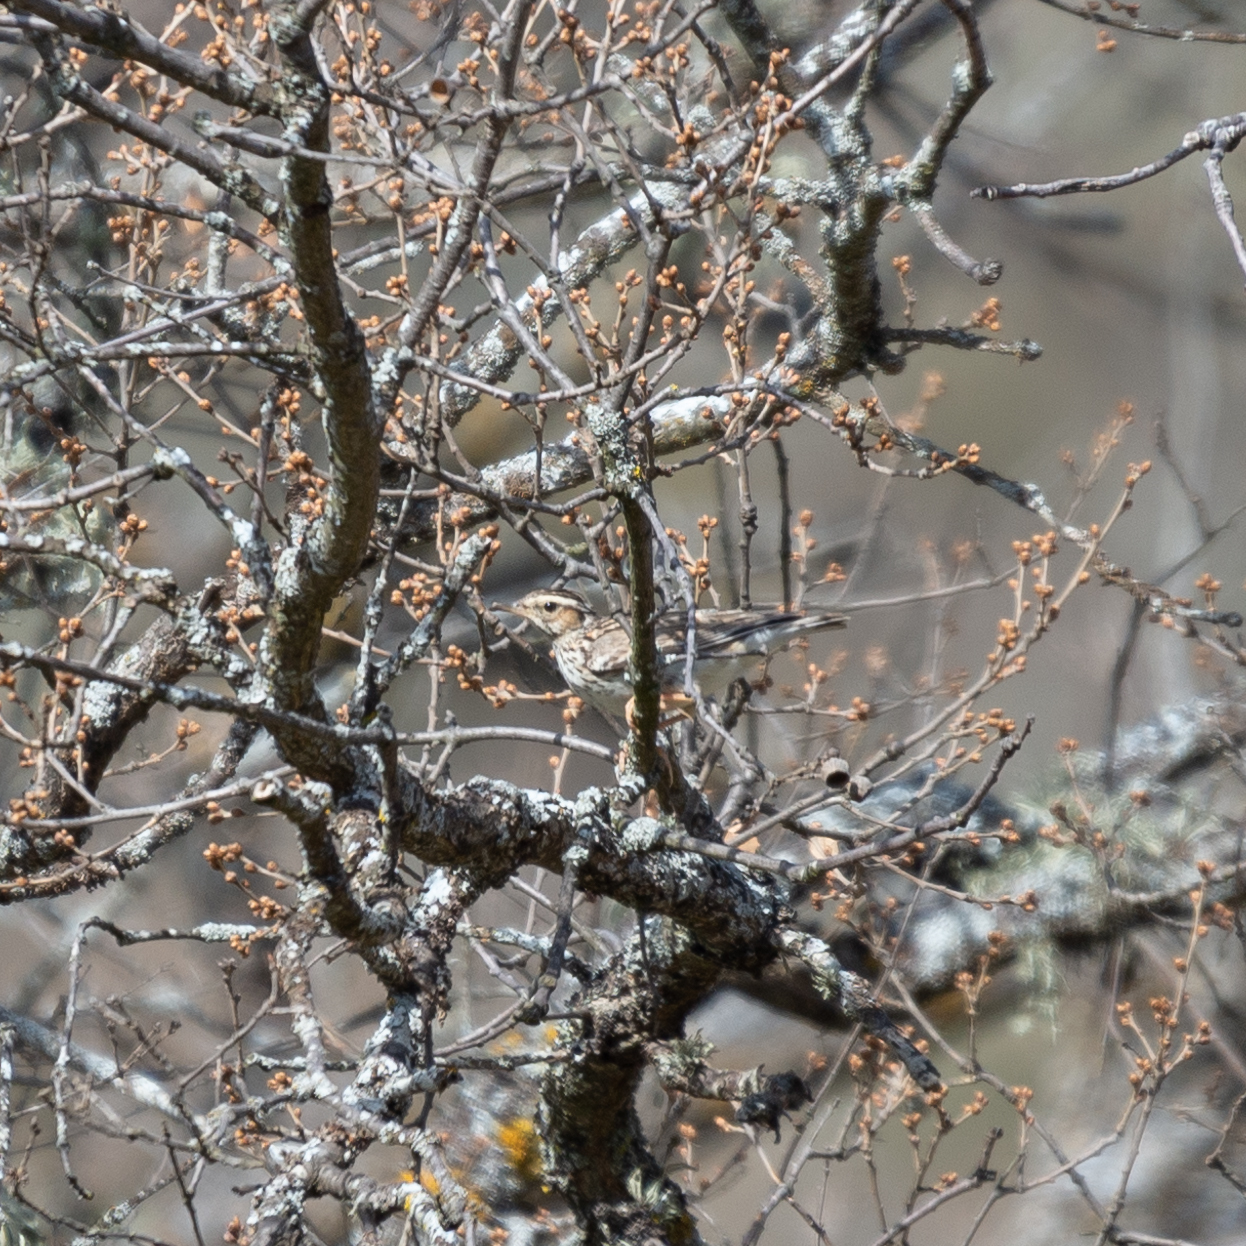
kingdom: Animalia
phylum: Chordata
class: Aves
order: Passeriformes
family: Alaudidae
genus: Lullula
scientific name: Lullula arborea
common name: Woodlark
